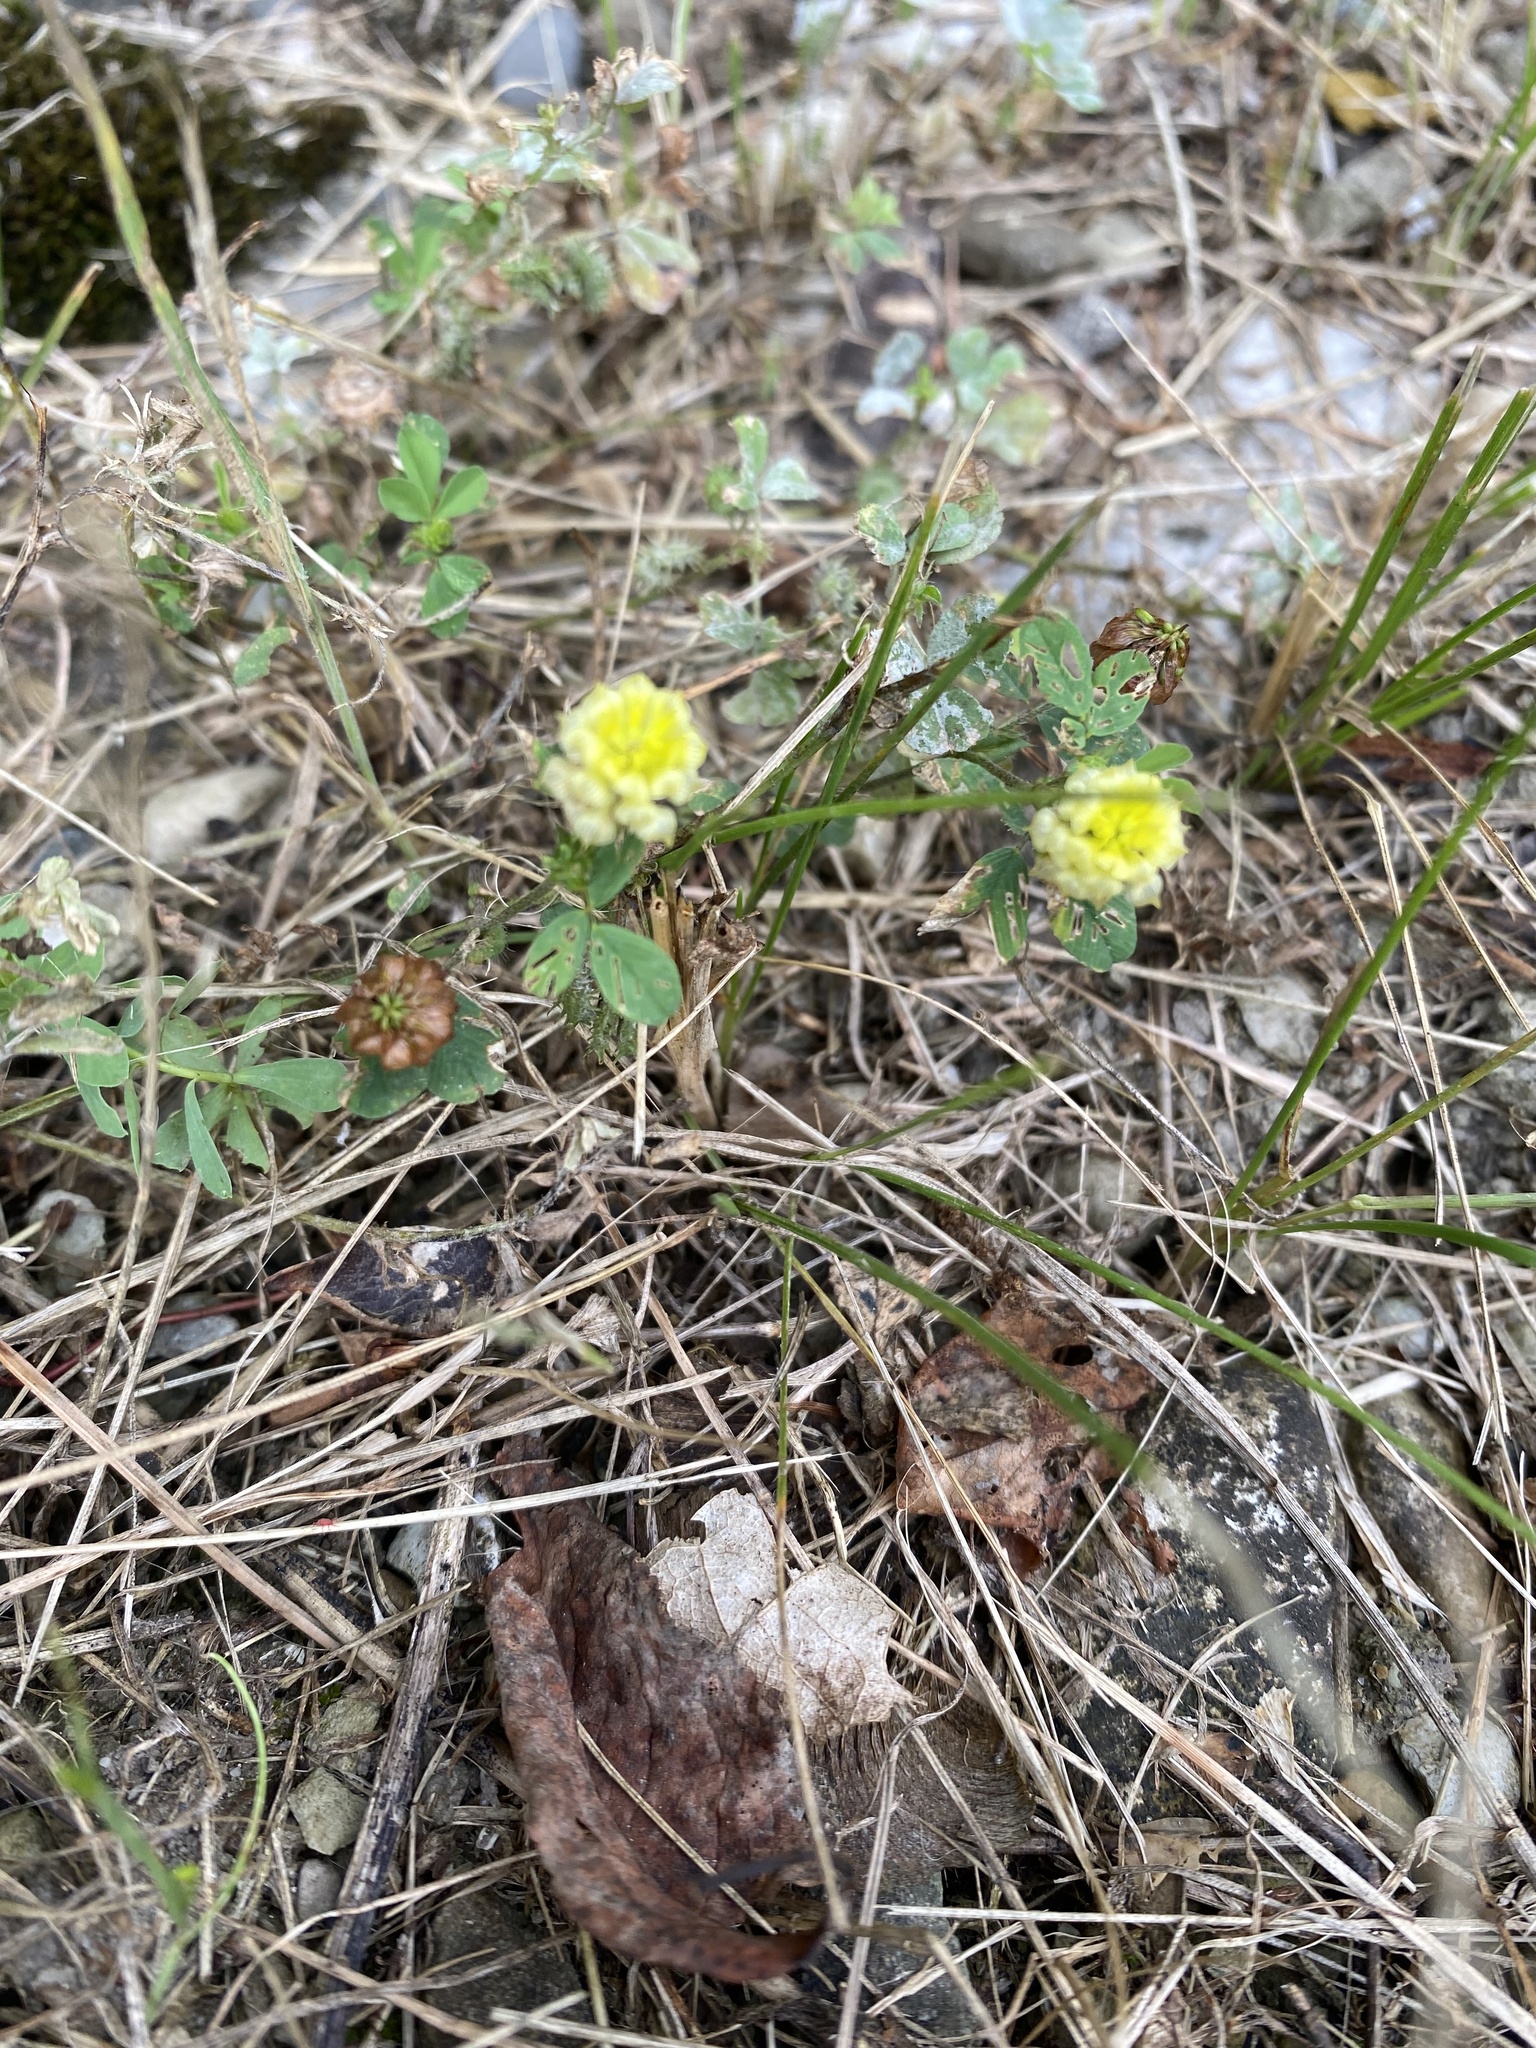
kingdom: Plantae
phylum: Tracheophyta
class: Magnoliopsida
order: Fabales
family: Fabaceae
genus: Trifolium
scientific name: Trifolium campestre
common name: Field clover
